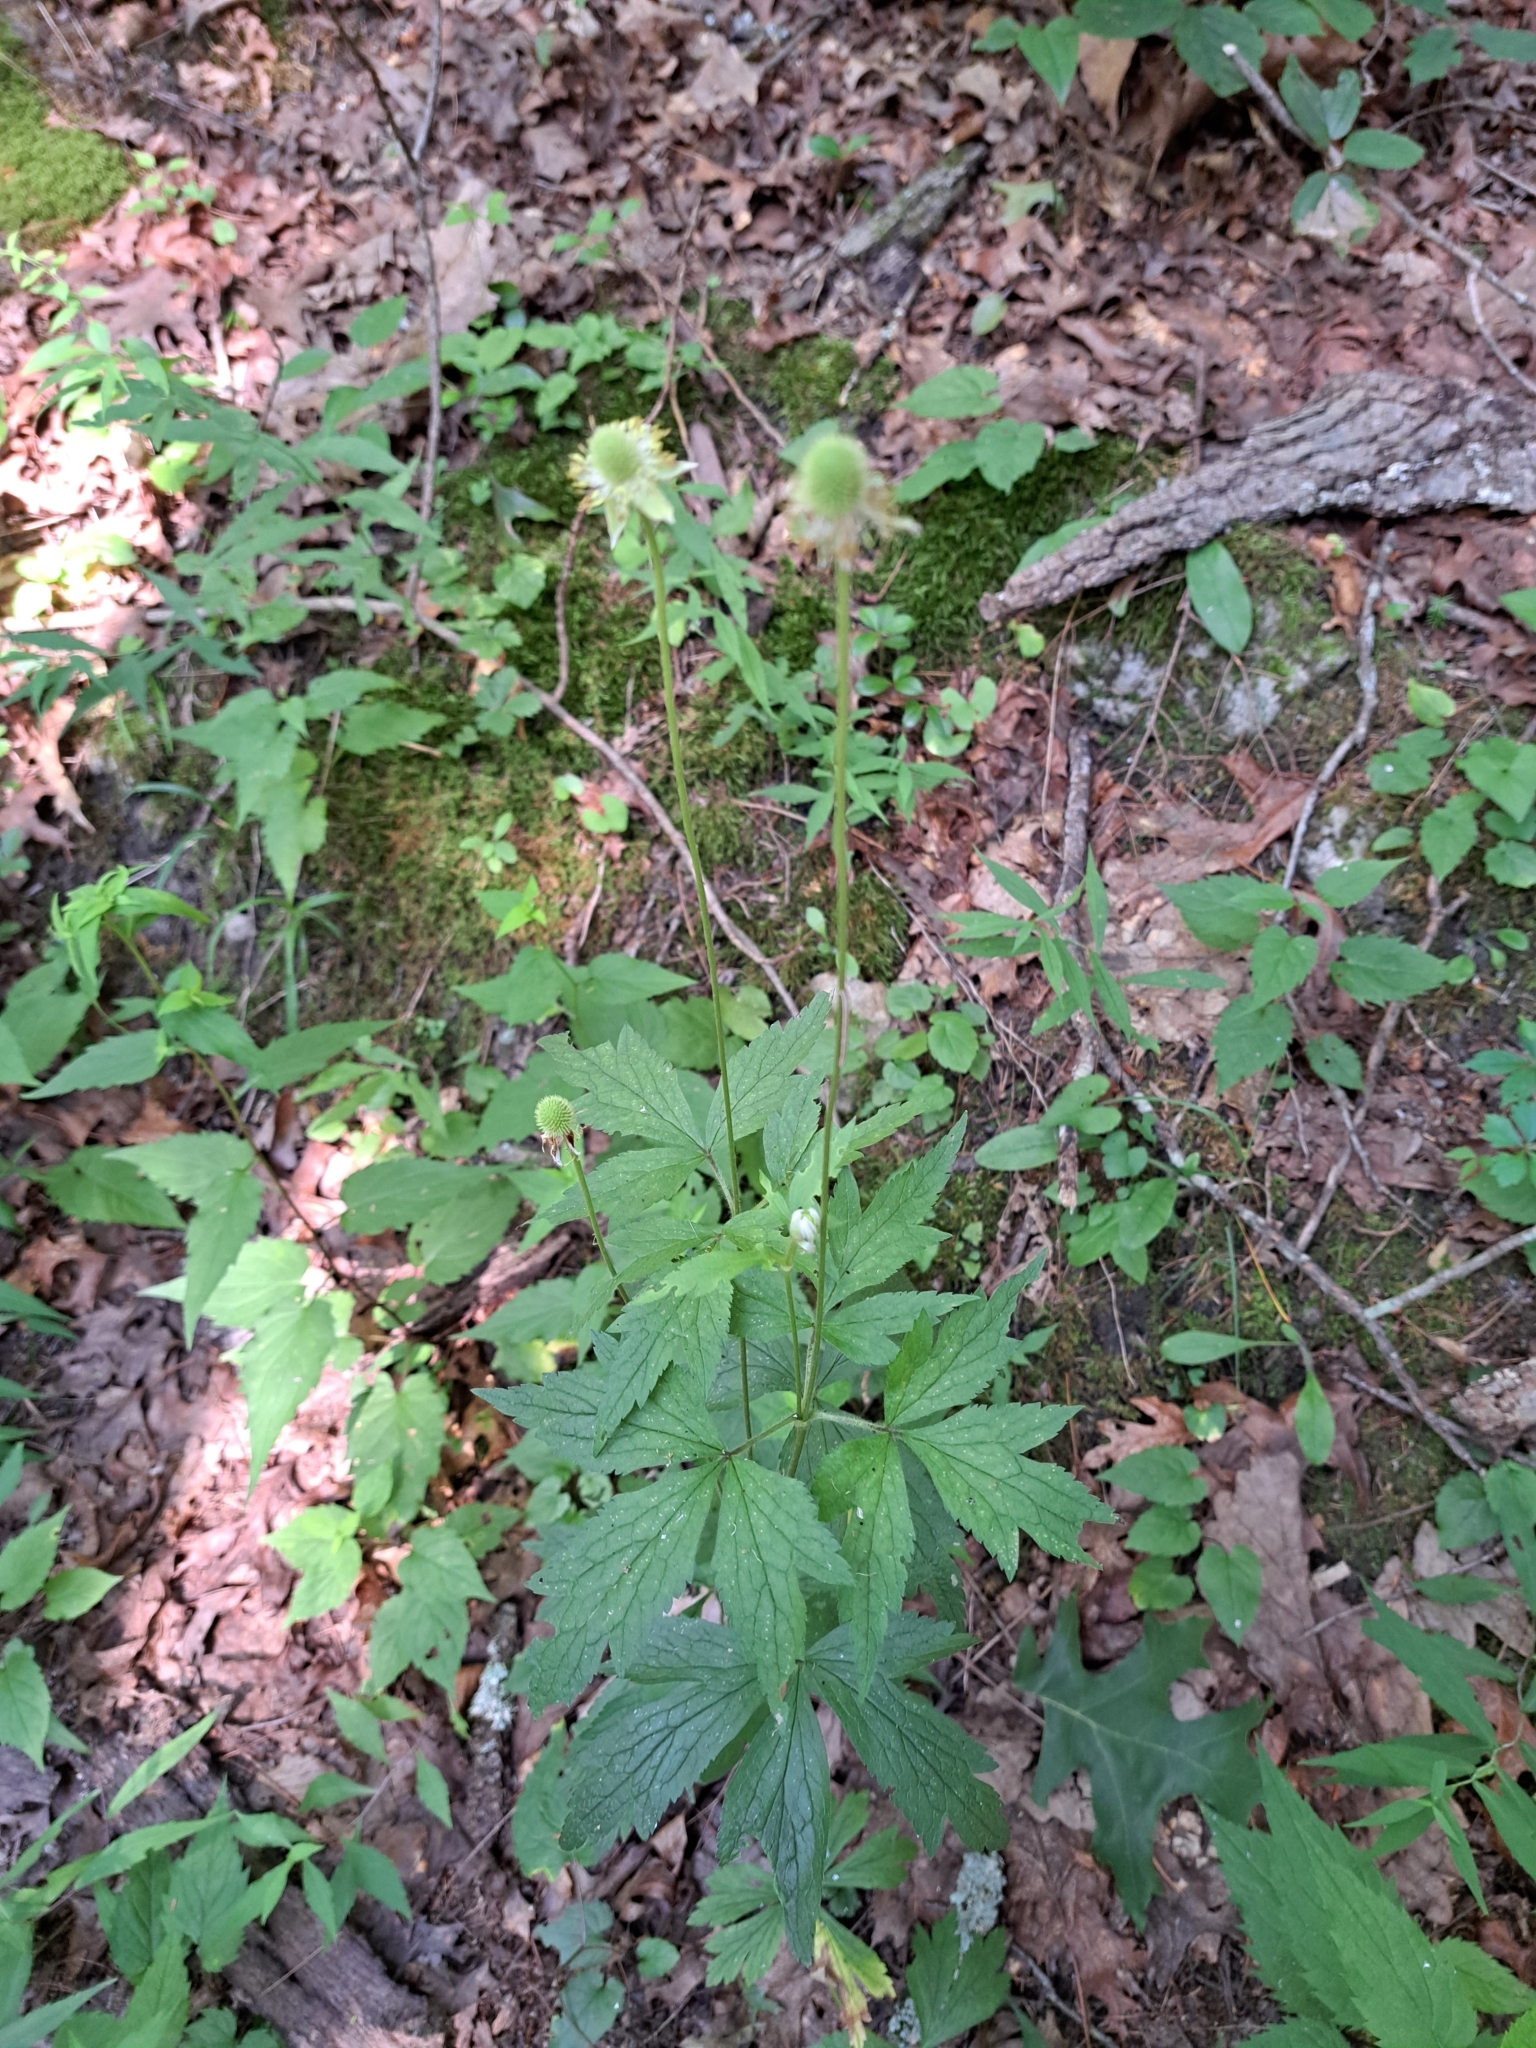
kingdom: Plantae
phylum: Tracheophyta
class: Magnoliopsida
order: Ranunculales
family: Ranunculaceae
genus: Anemone
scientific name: Anemone virginiana
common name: Tall anemone
